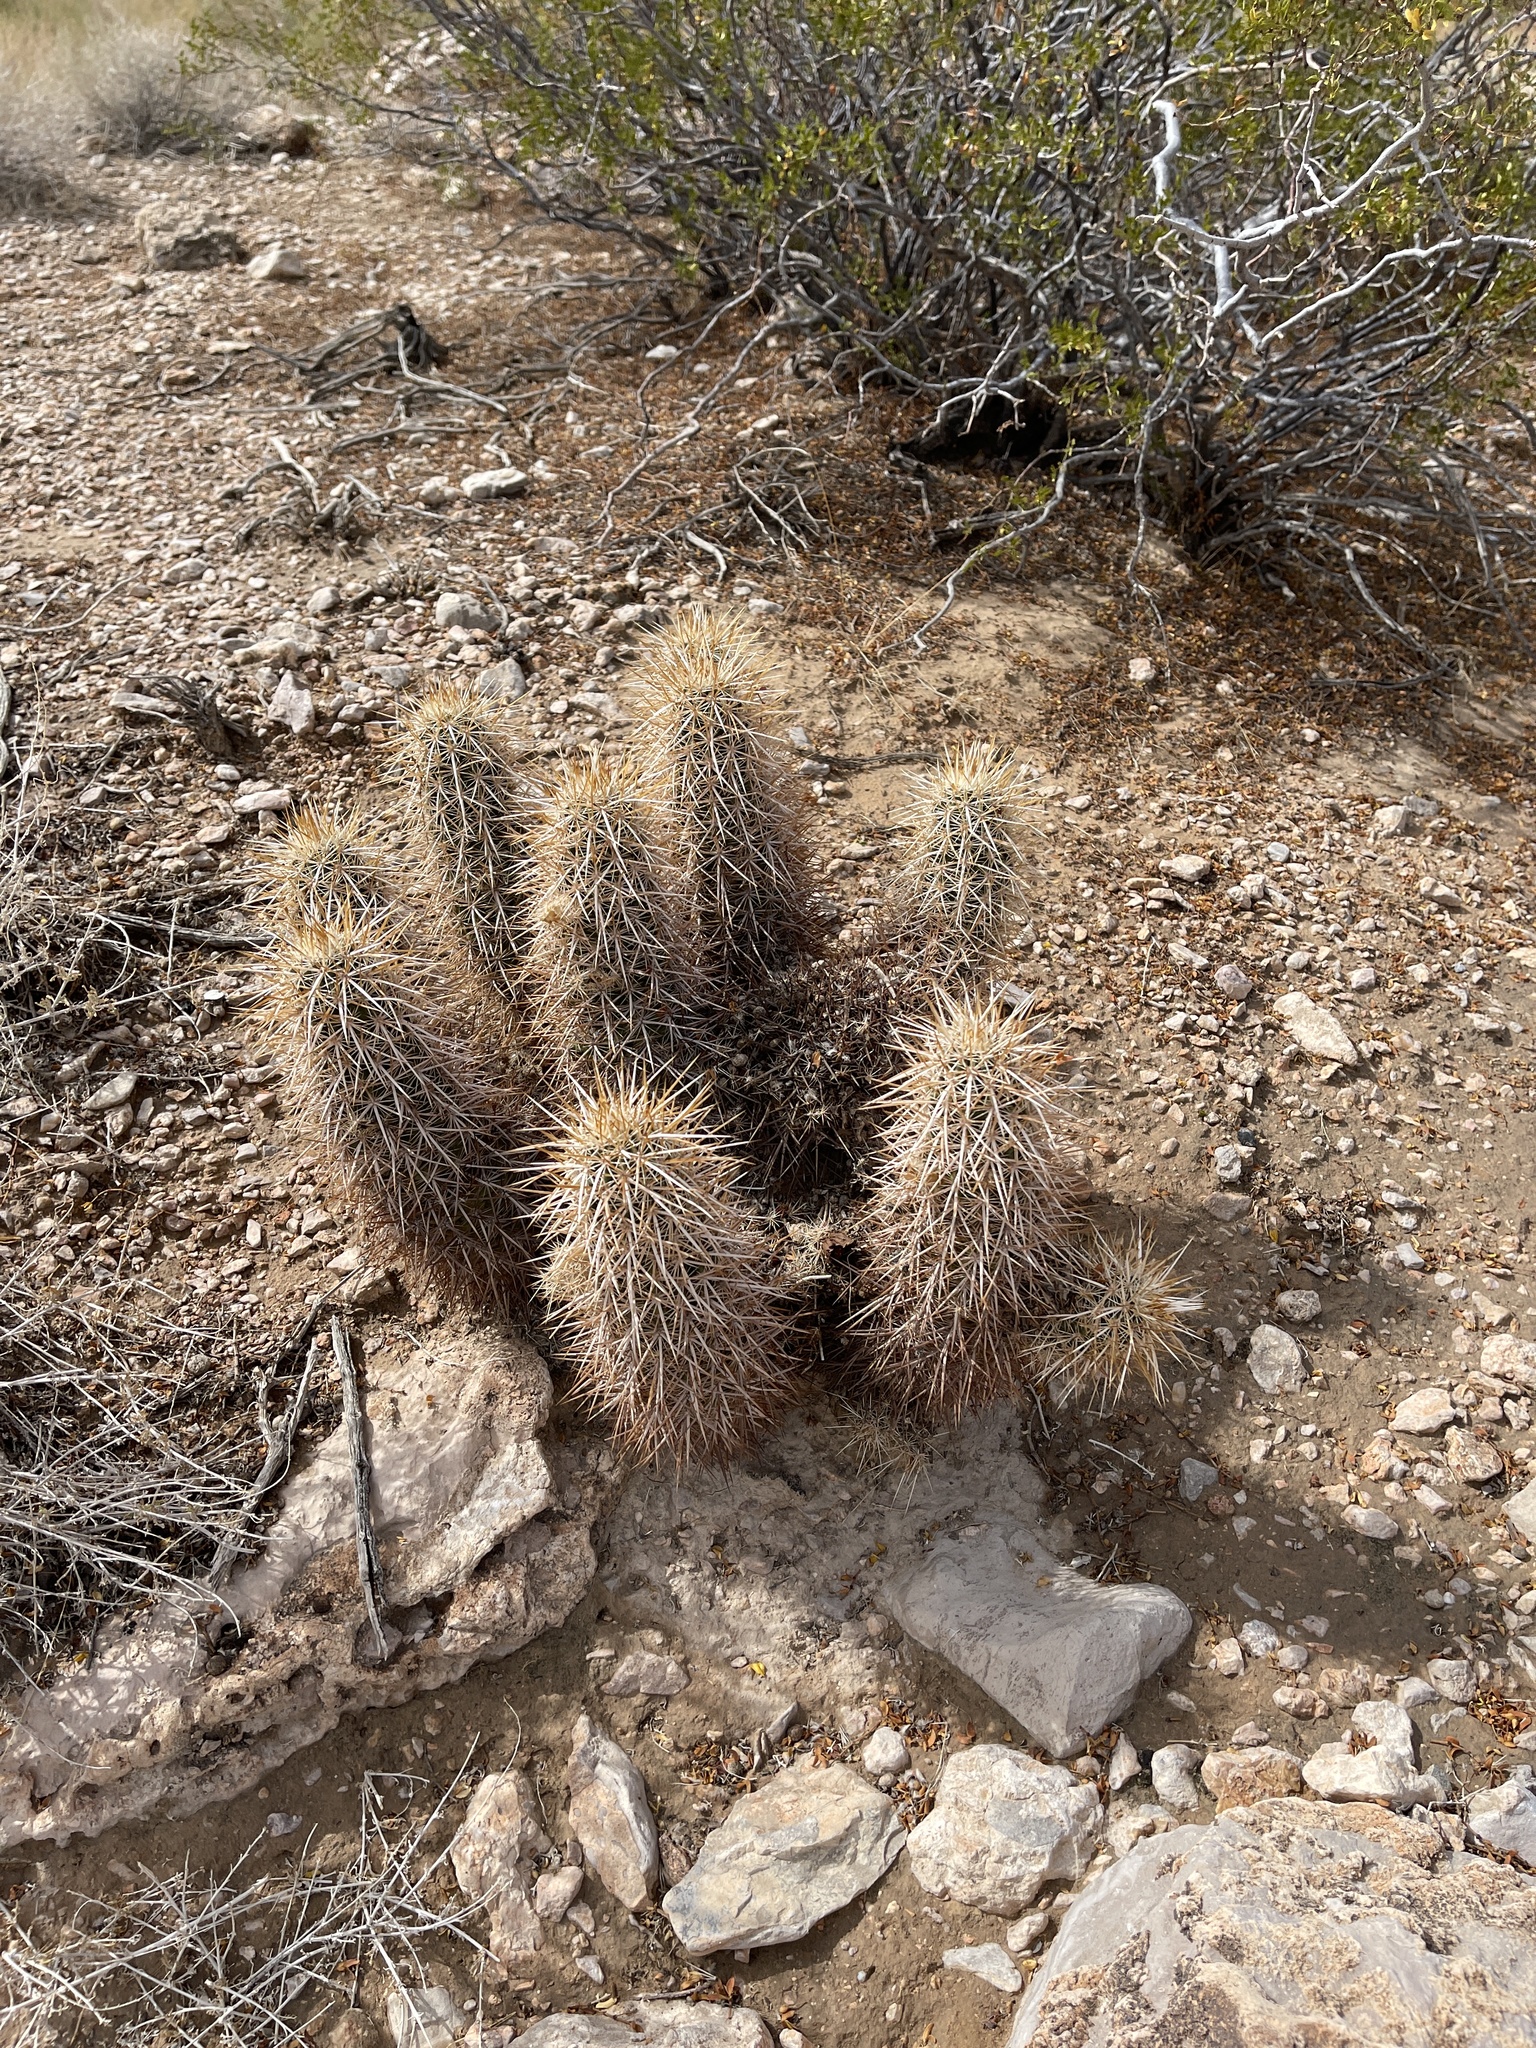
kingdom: Plantae
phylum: Tracheophyta
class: Magnoliopsida
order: Caryophyllales
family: Cactaceae
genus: Echinocereus
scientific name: Echinocereus engelmannii
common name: Engelmann's hedgehog cactus
